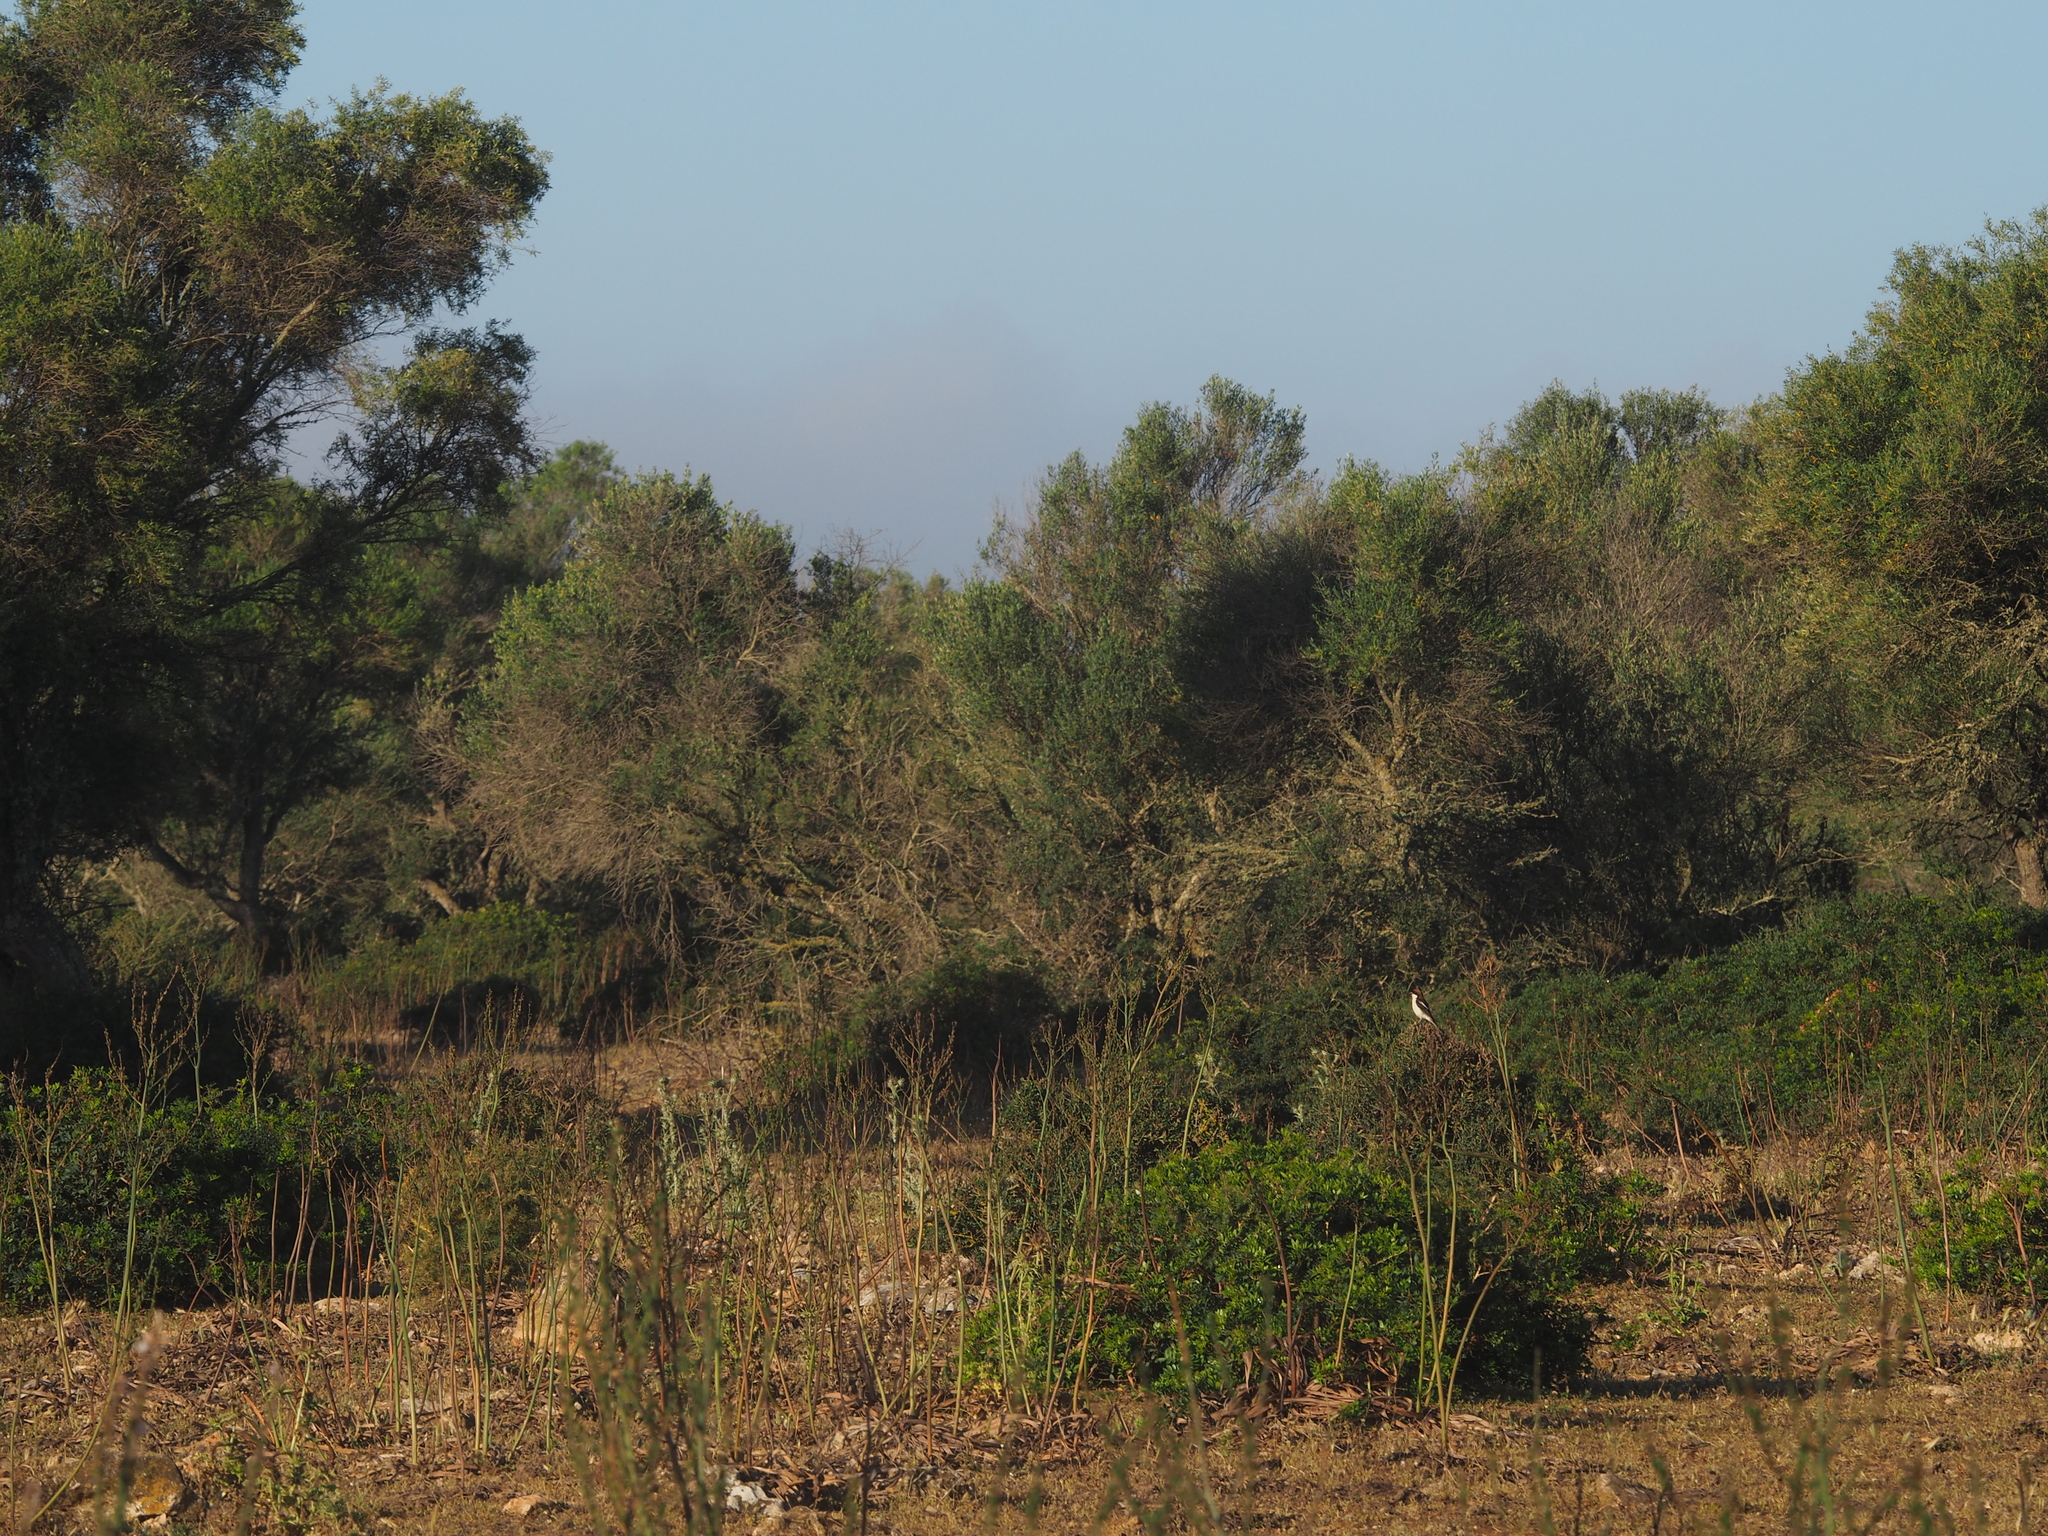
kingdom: Animalia
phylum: Chordata
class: Aves
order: Passeriformes
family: Laniidae
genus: Lanius
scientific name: Lanius senator
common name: Woodchat shrike
